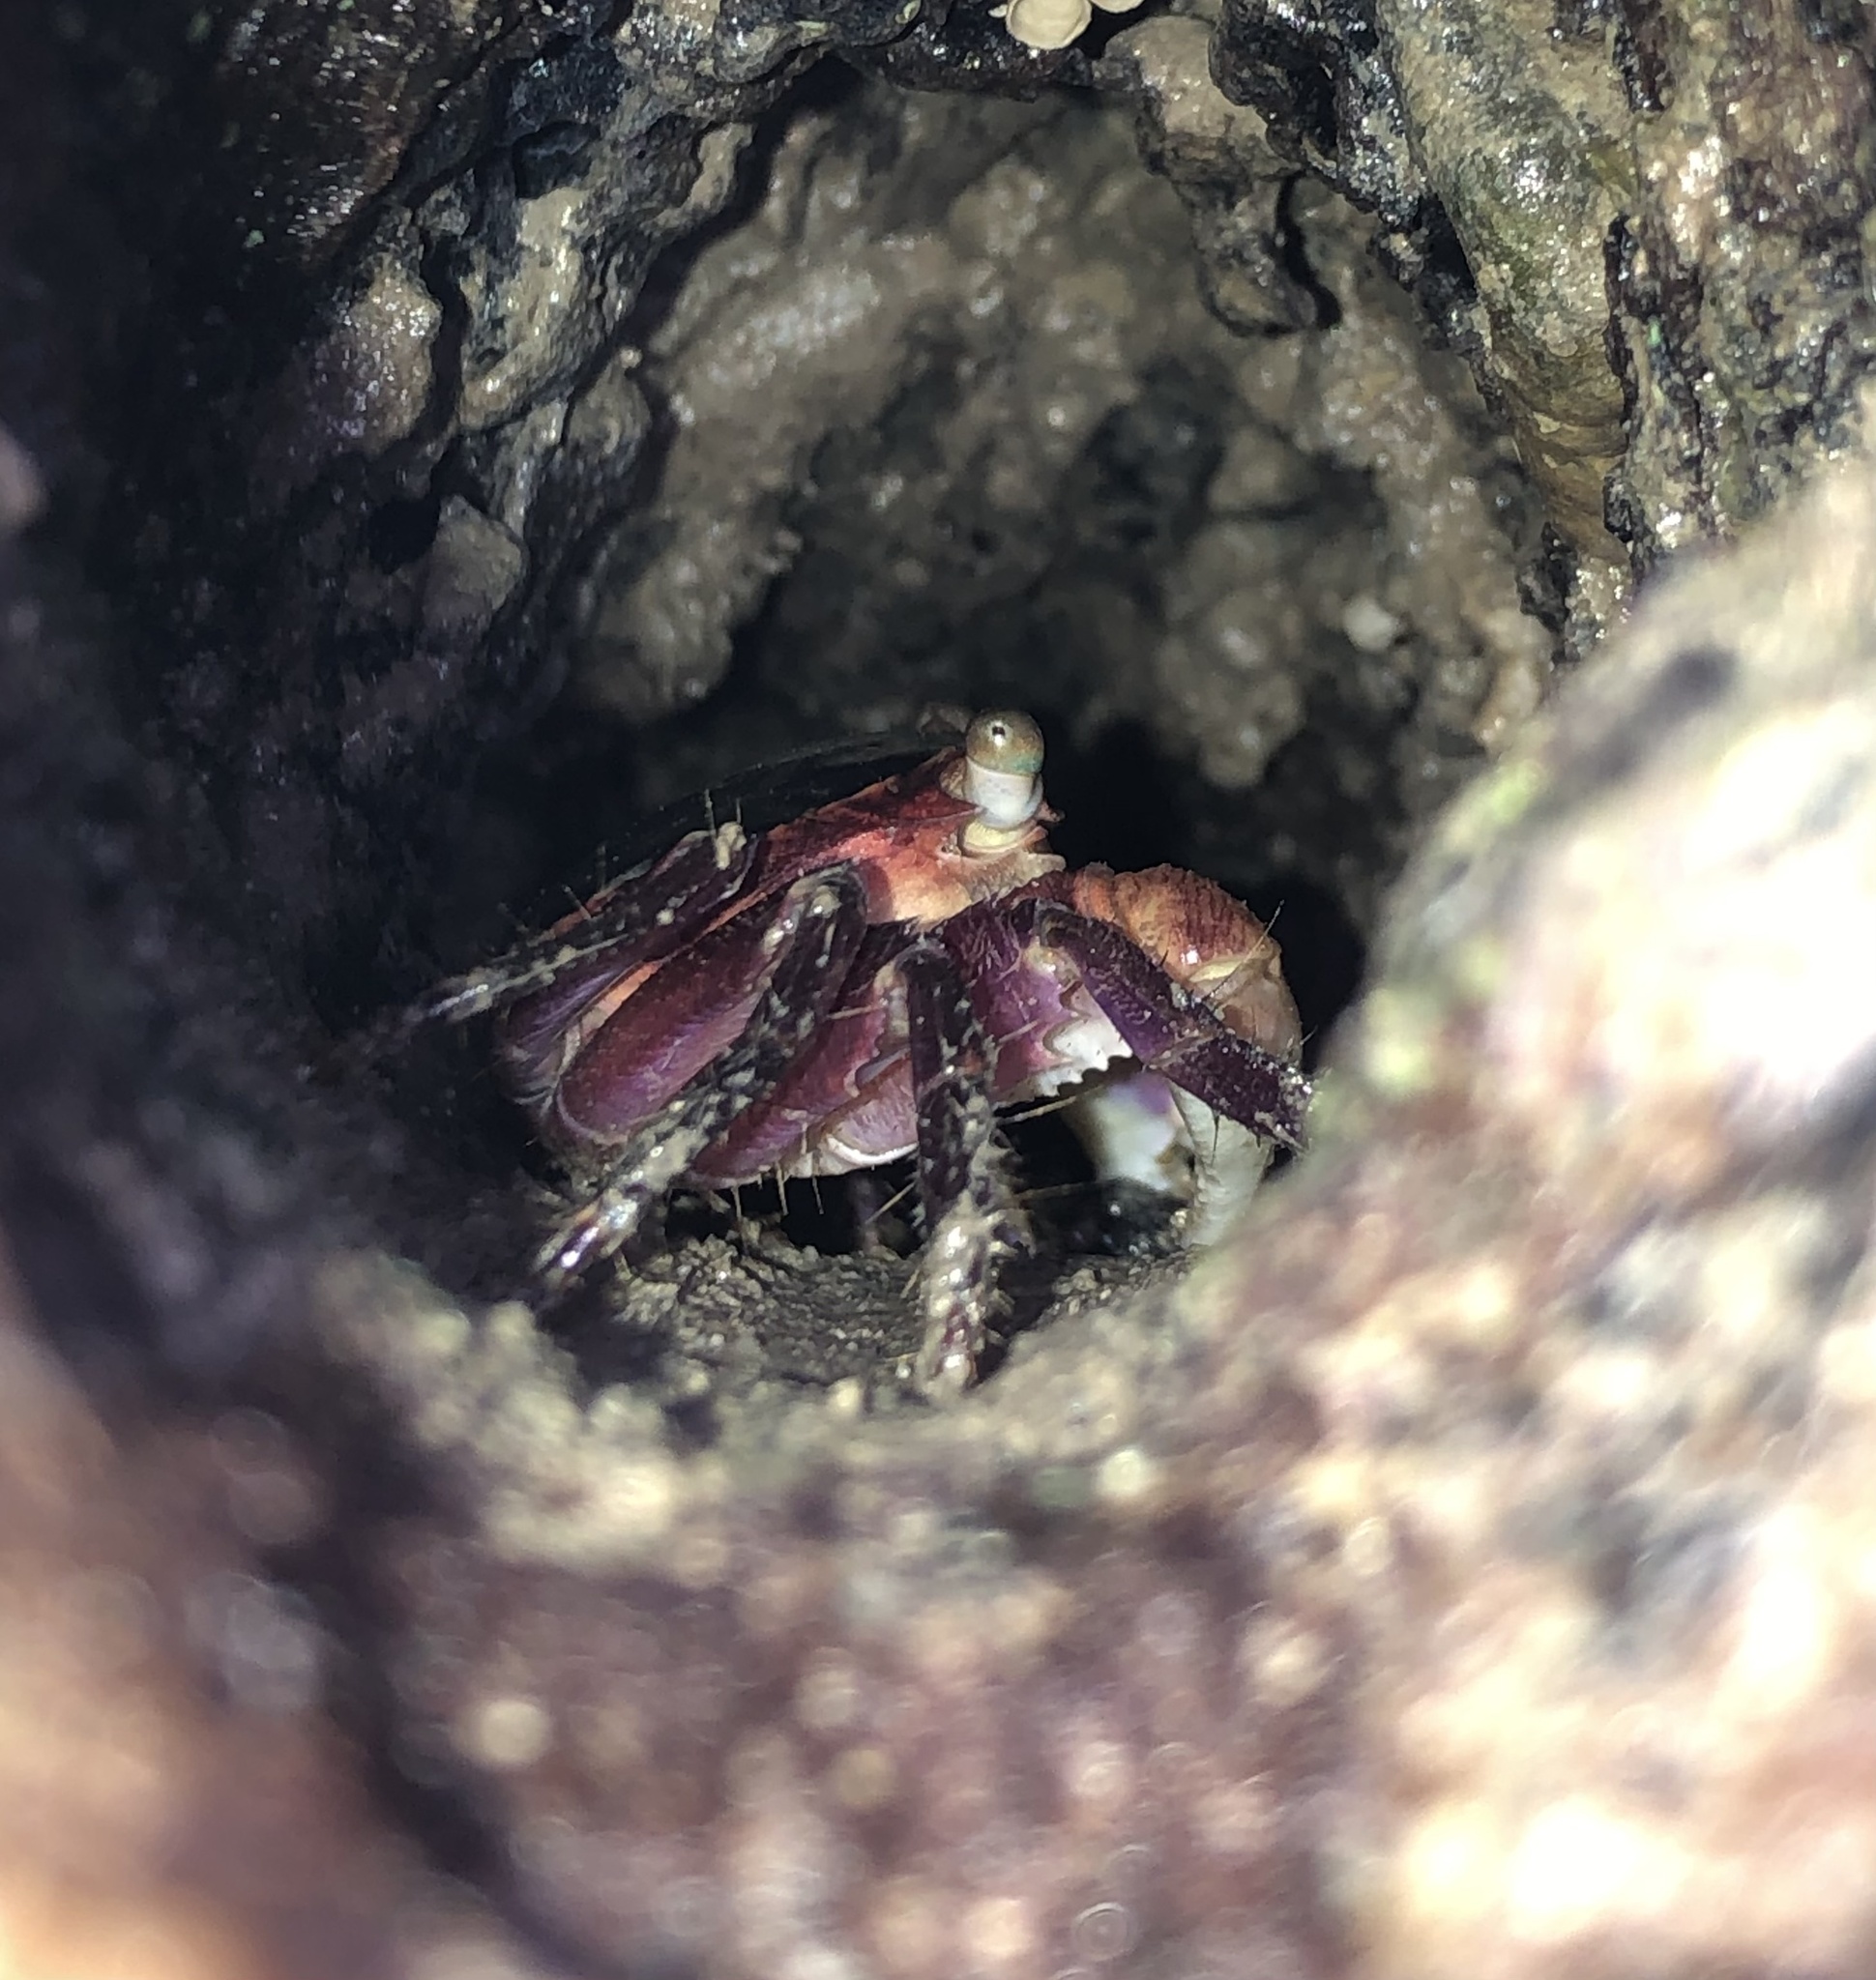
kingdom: Animalia
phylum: Arthropoda
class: Malacostraca
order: Decapoda
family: Grapsidae
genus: Metopograpsus
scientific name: Metopograpsus frontalis
